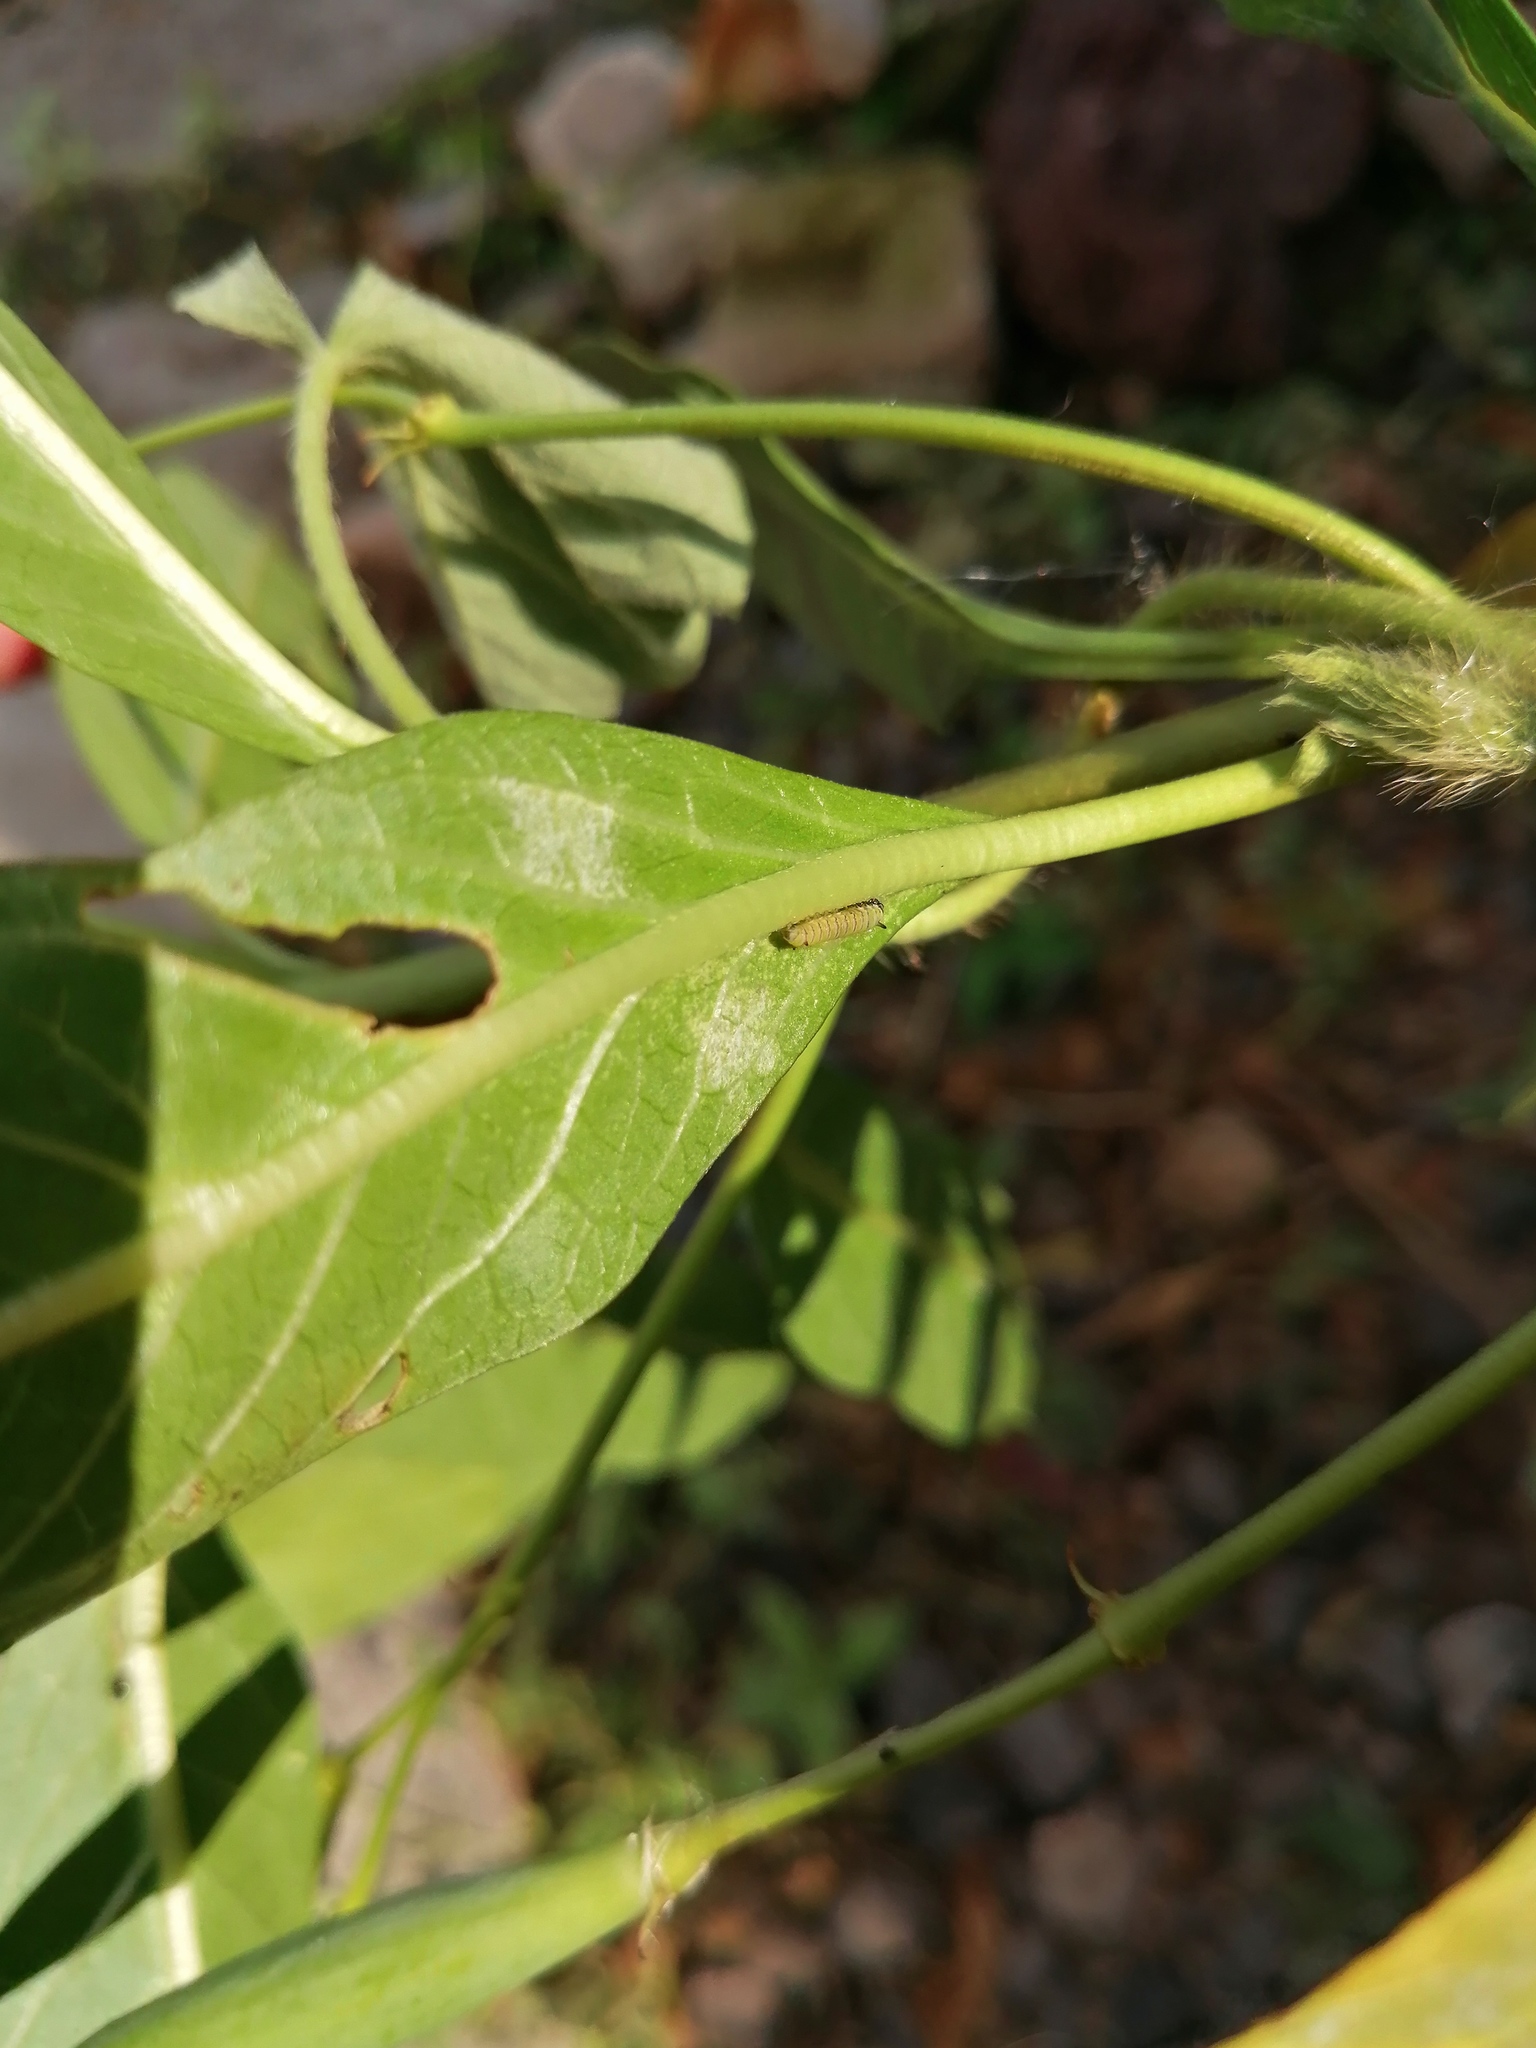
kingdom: Animalia
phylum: Arthropoda
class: Insecta
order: Lepidoptera
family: Nymphalidae
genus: Danaus
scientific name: Danaus plexippus
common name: Monarch
